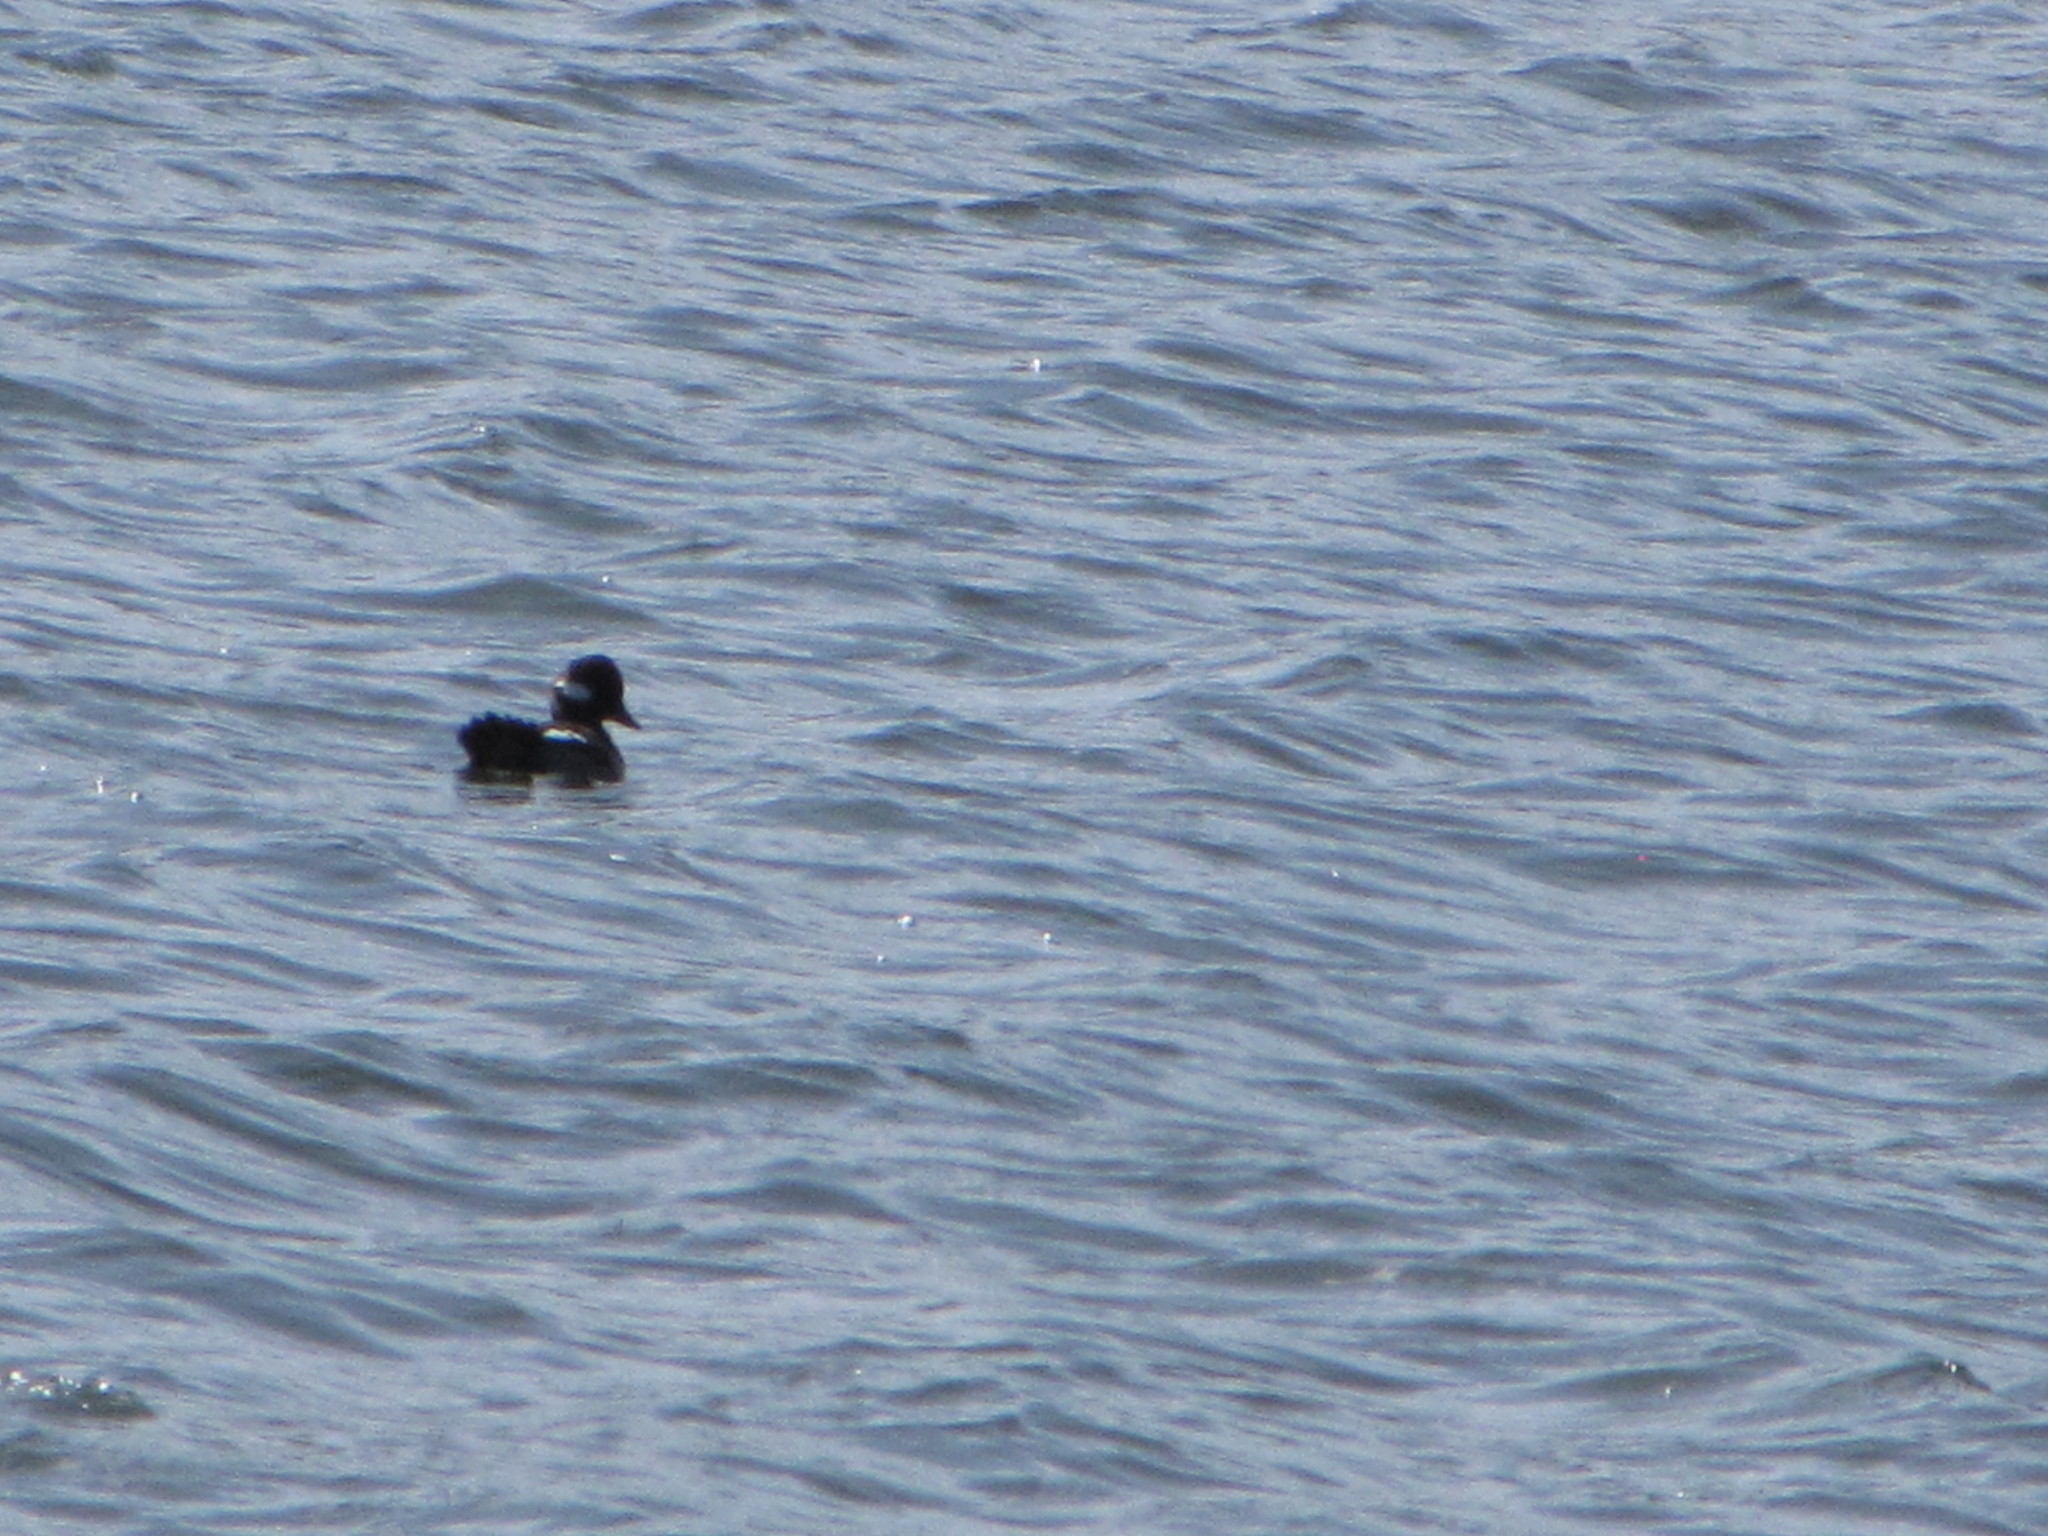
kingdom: Animalia
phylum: Chordata
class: Aves
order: Anseriformes
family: Anatidae
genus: Bucephala
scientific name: Bucephala albeola
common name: Bufflehead
